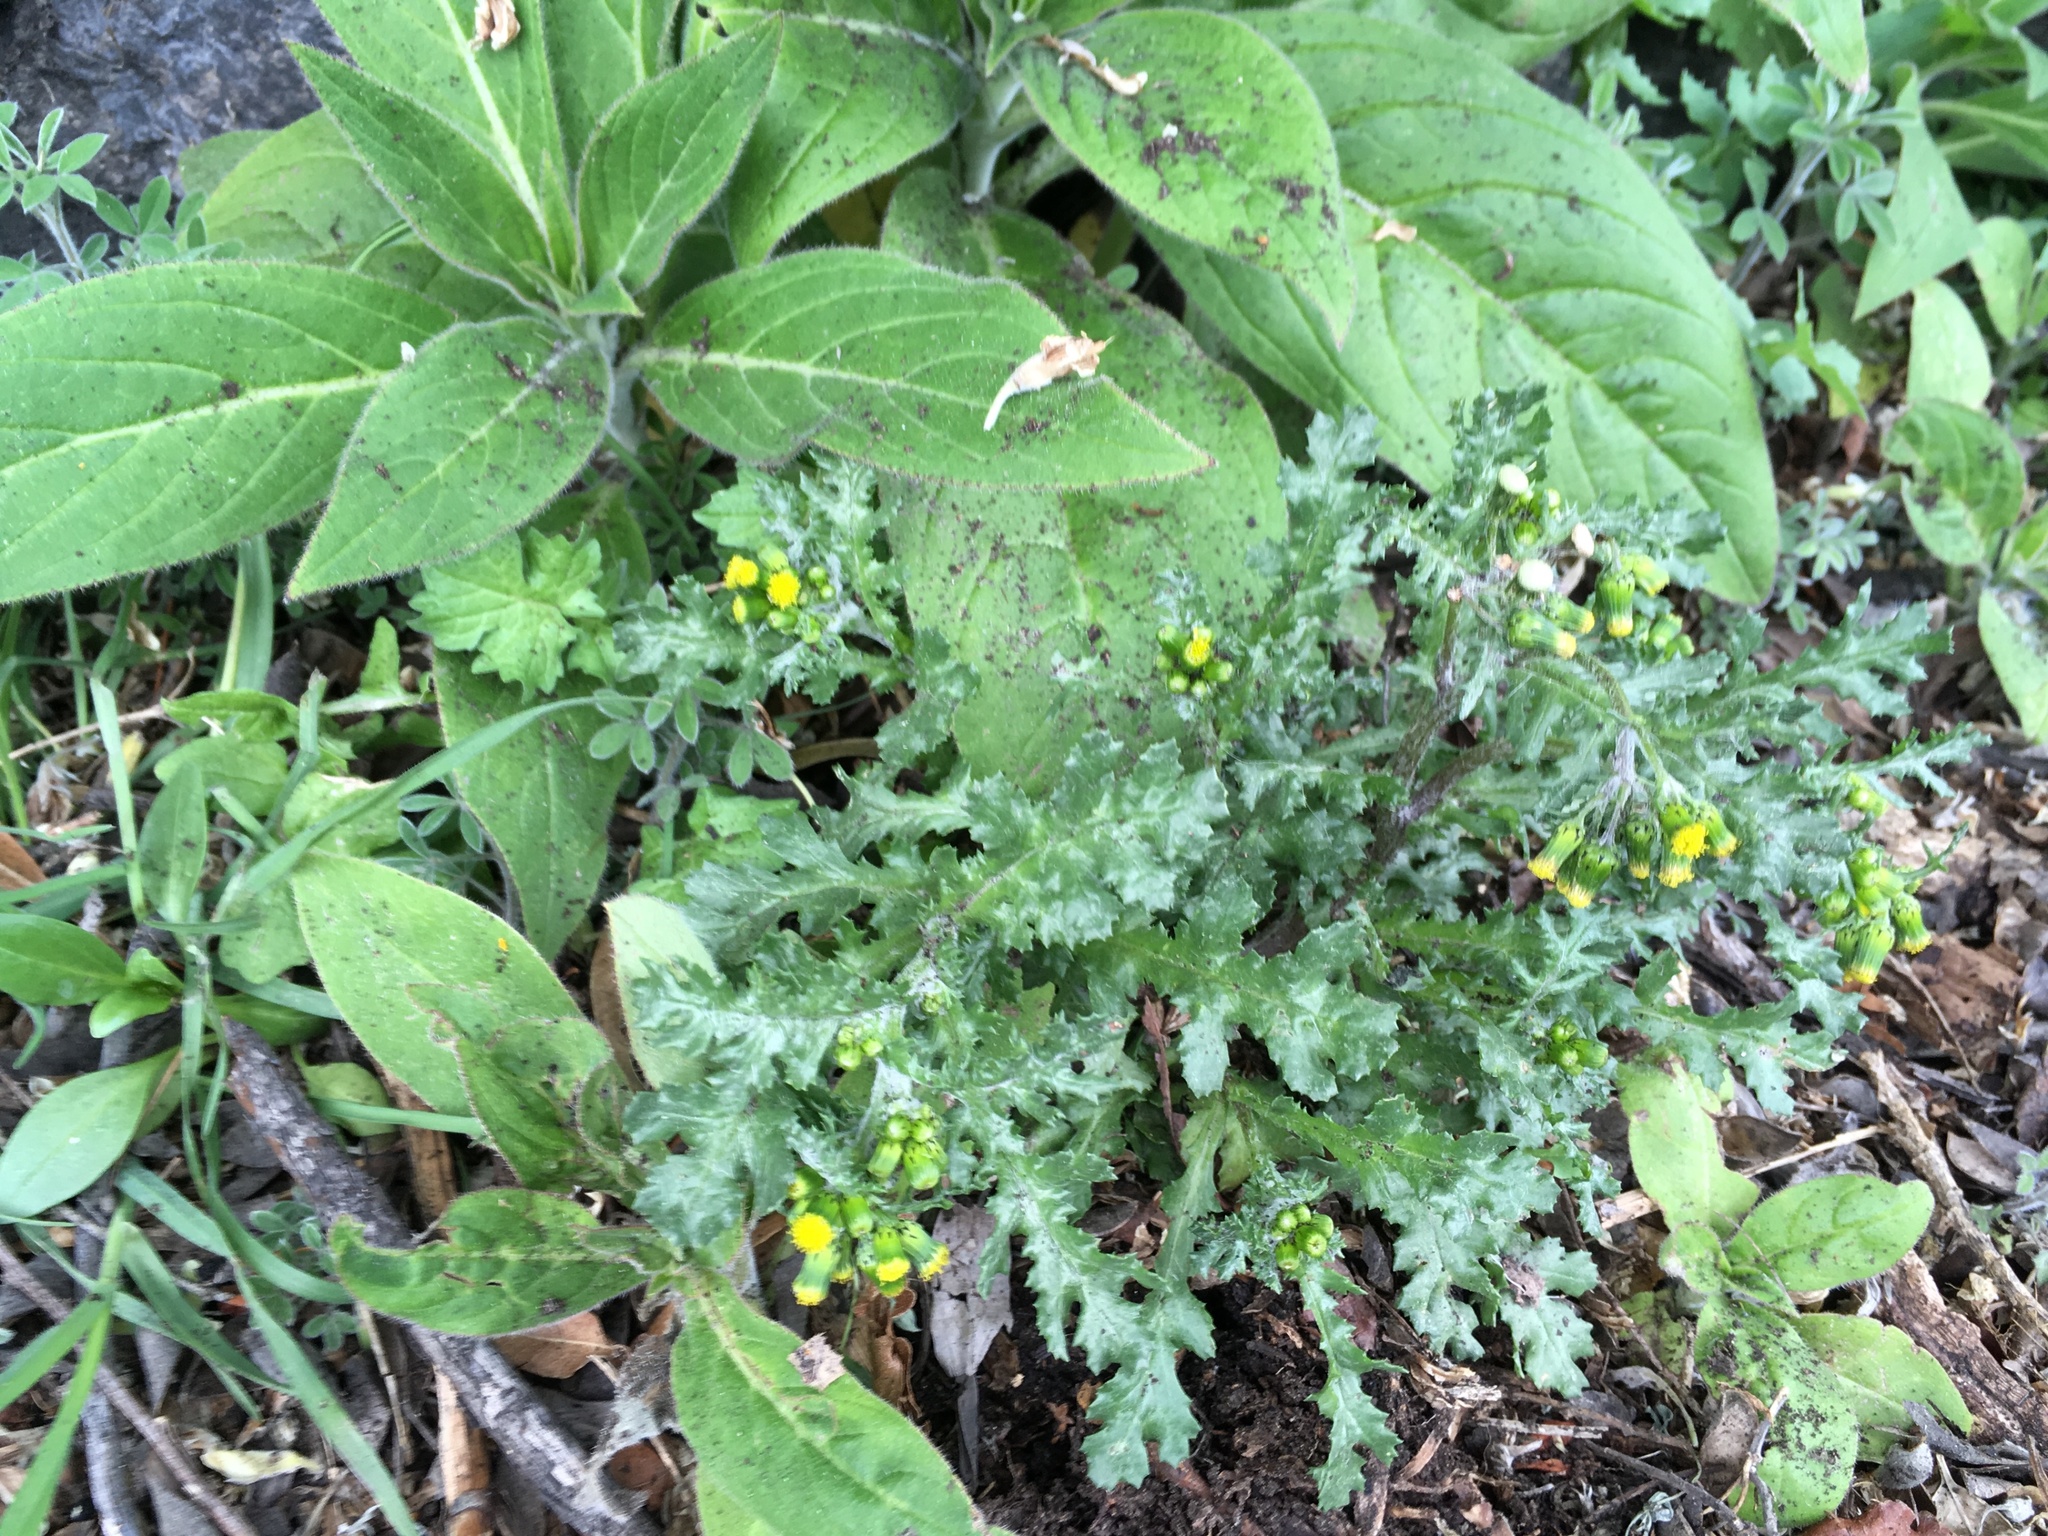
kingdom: Plantae
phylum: Tracheophyta
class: Magnoliopsida
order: Asterales
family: Asteraceae
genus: Senecio
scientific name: Senecio vulgaris
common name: Old-man-in-the-spring
